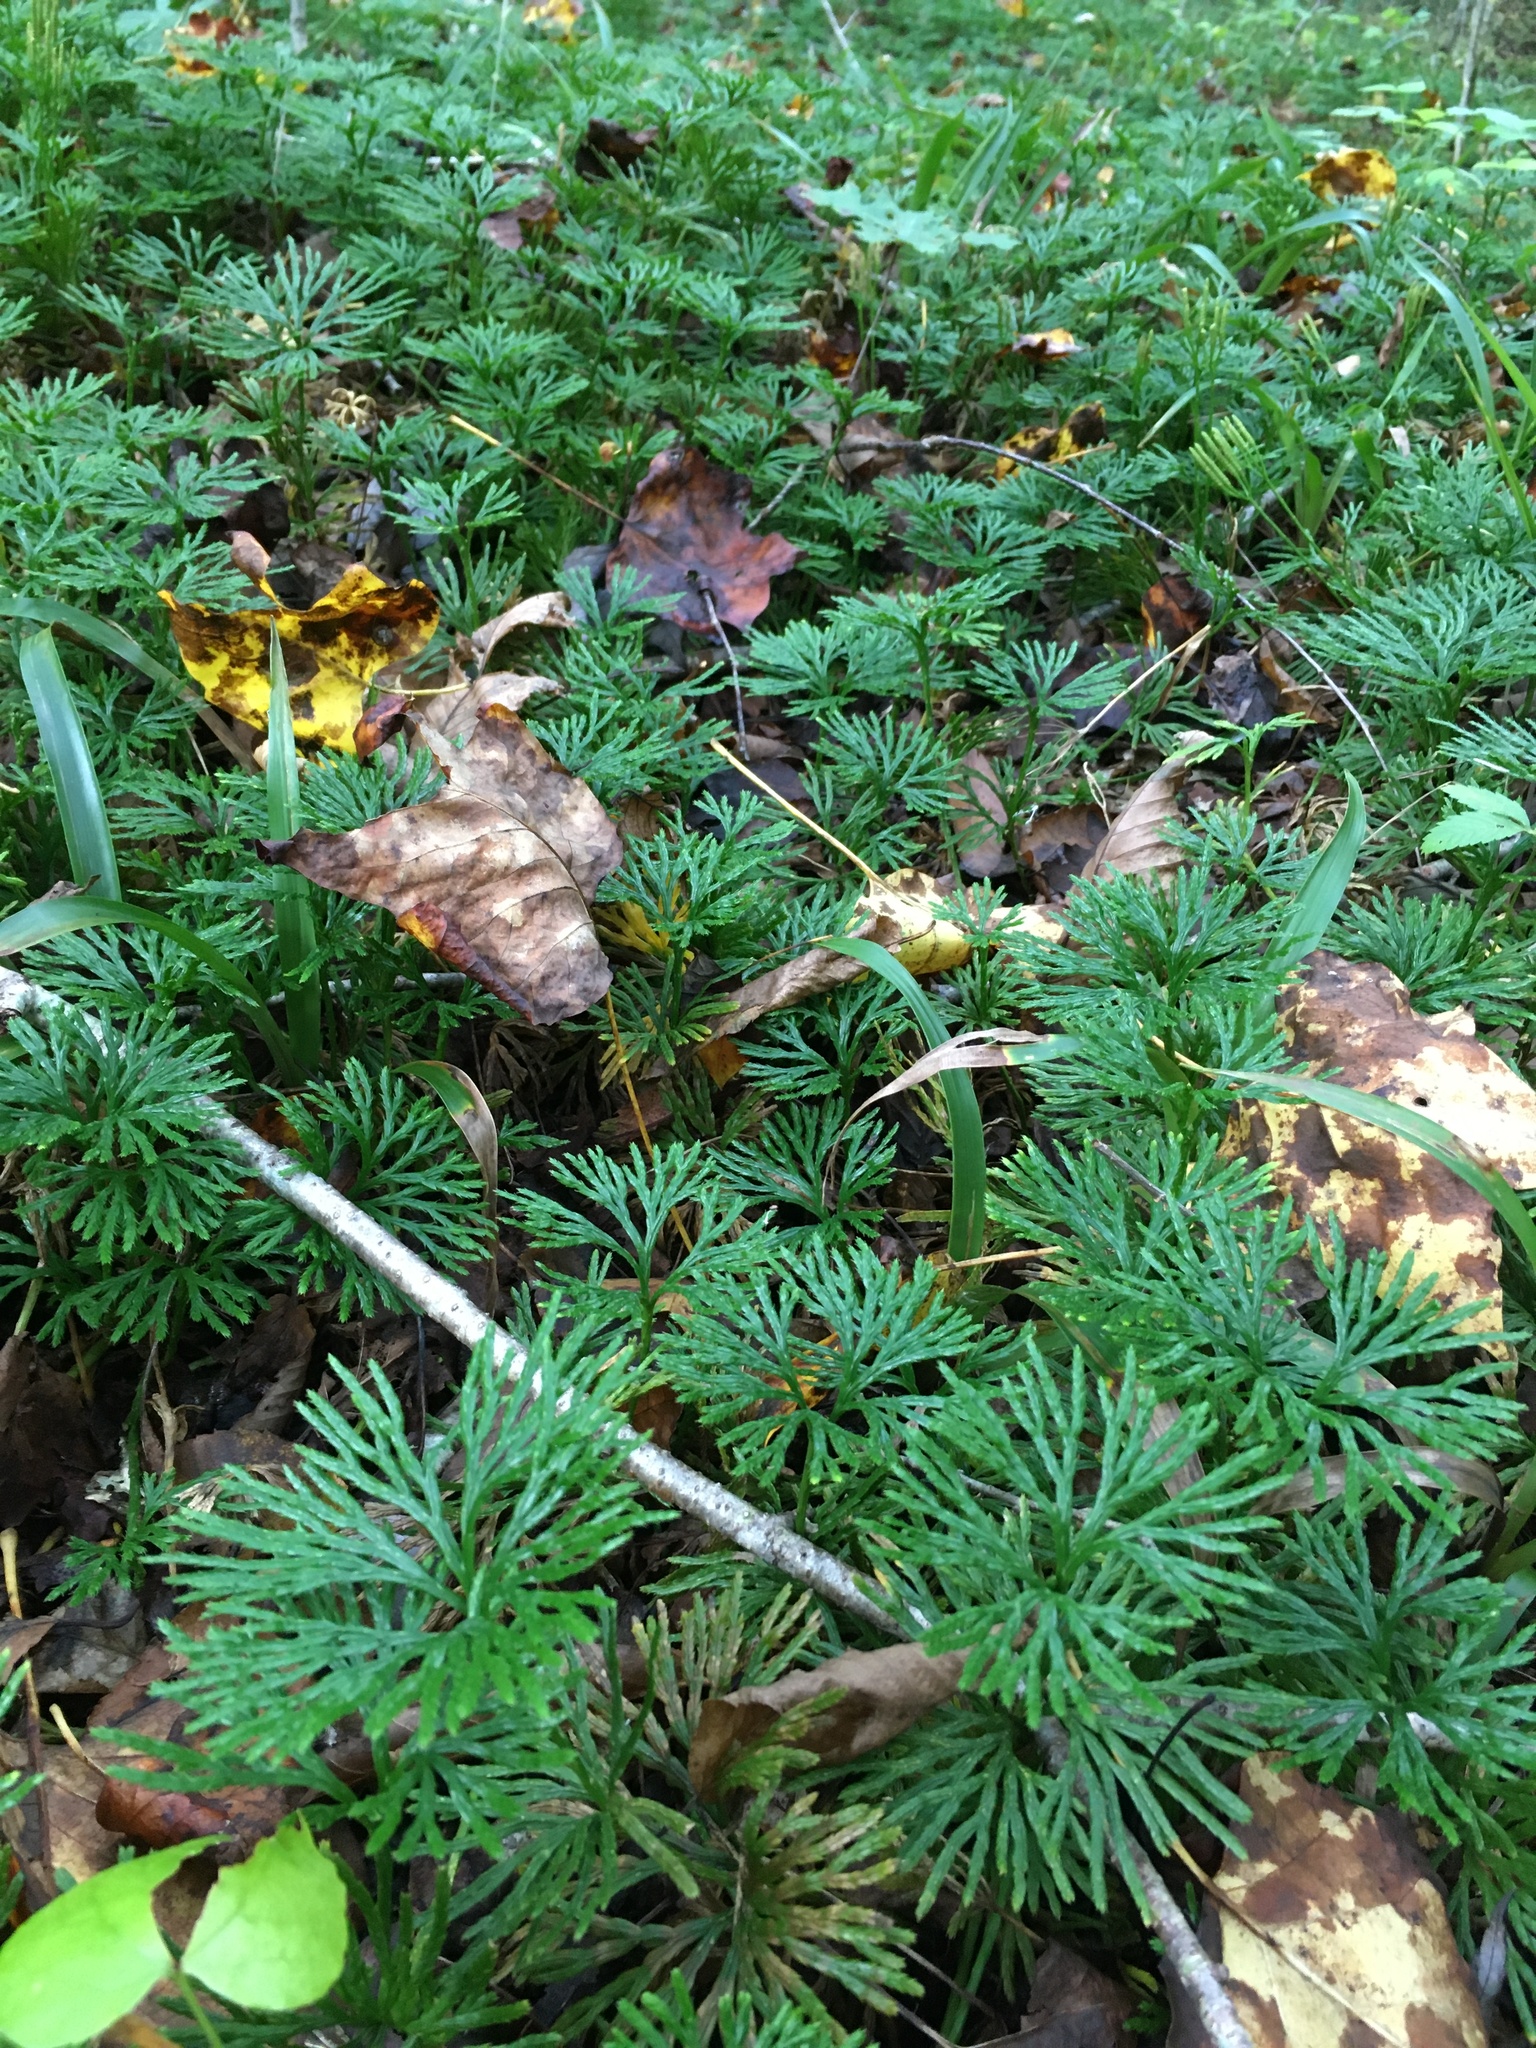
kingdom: Plantae
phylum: Tracheophyta
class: Lycopodiopsida
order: Lycopodiales
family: Lycopodiaceae
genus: Diphasiastrum
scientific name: Diphasiastrum digitatum
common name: Southern running-pine
